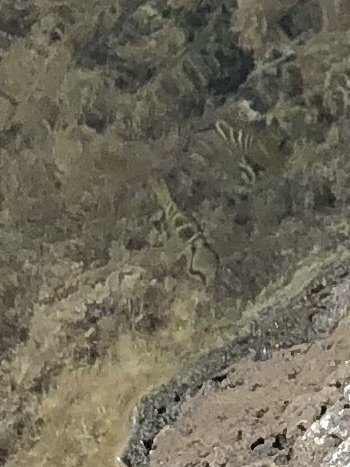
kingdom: Animalia
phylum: Chordata
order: Perciformes
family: Lutjanidae
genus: Lutjanus
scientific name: Lutjanus apodus
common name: Schoolmaster
